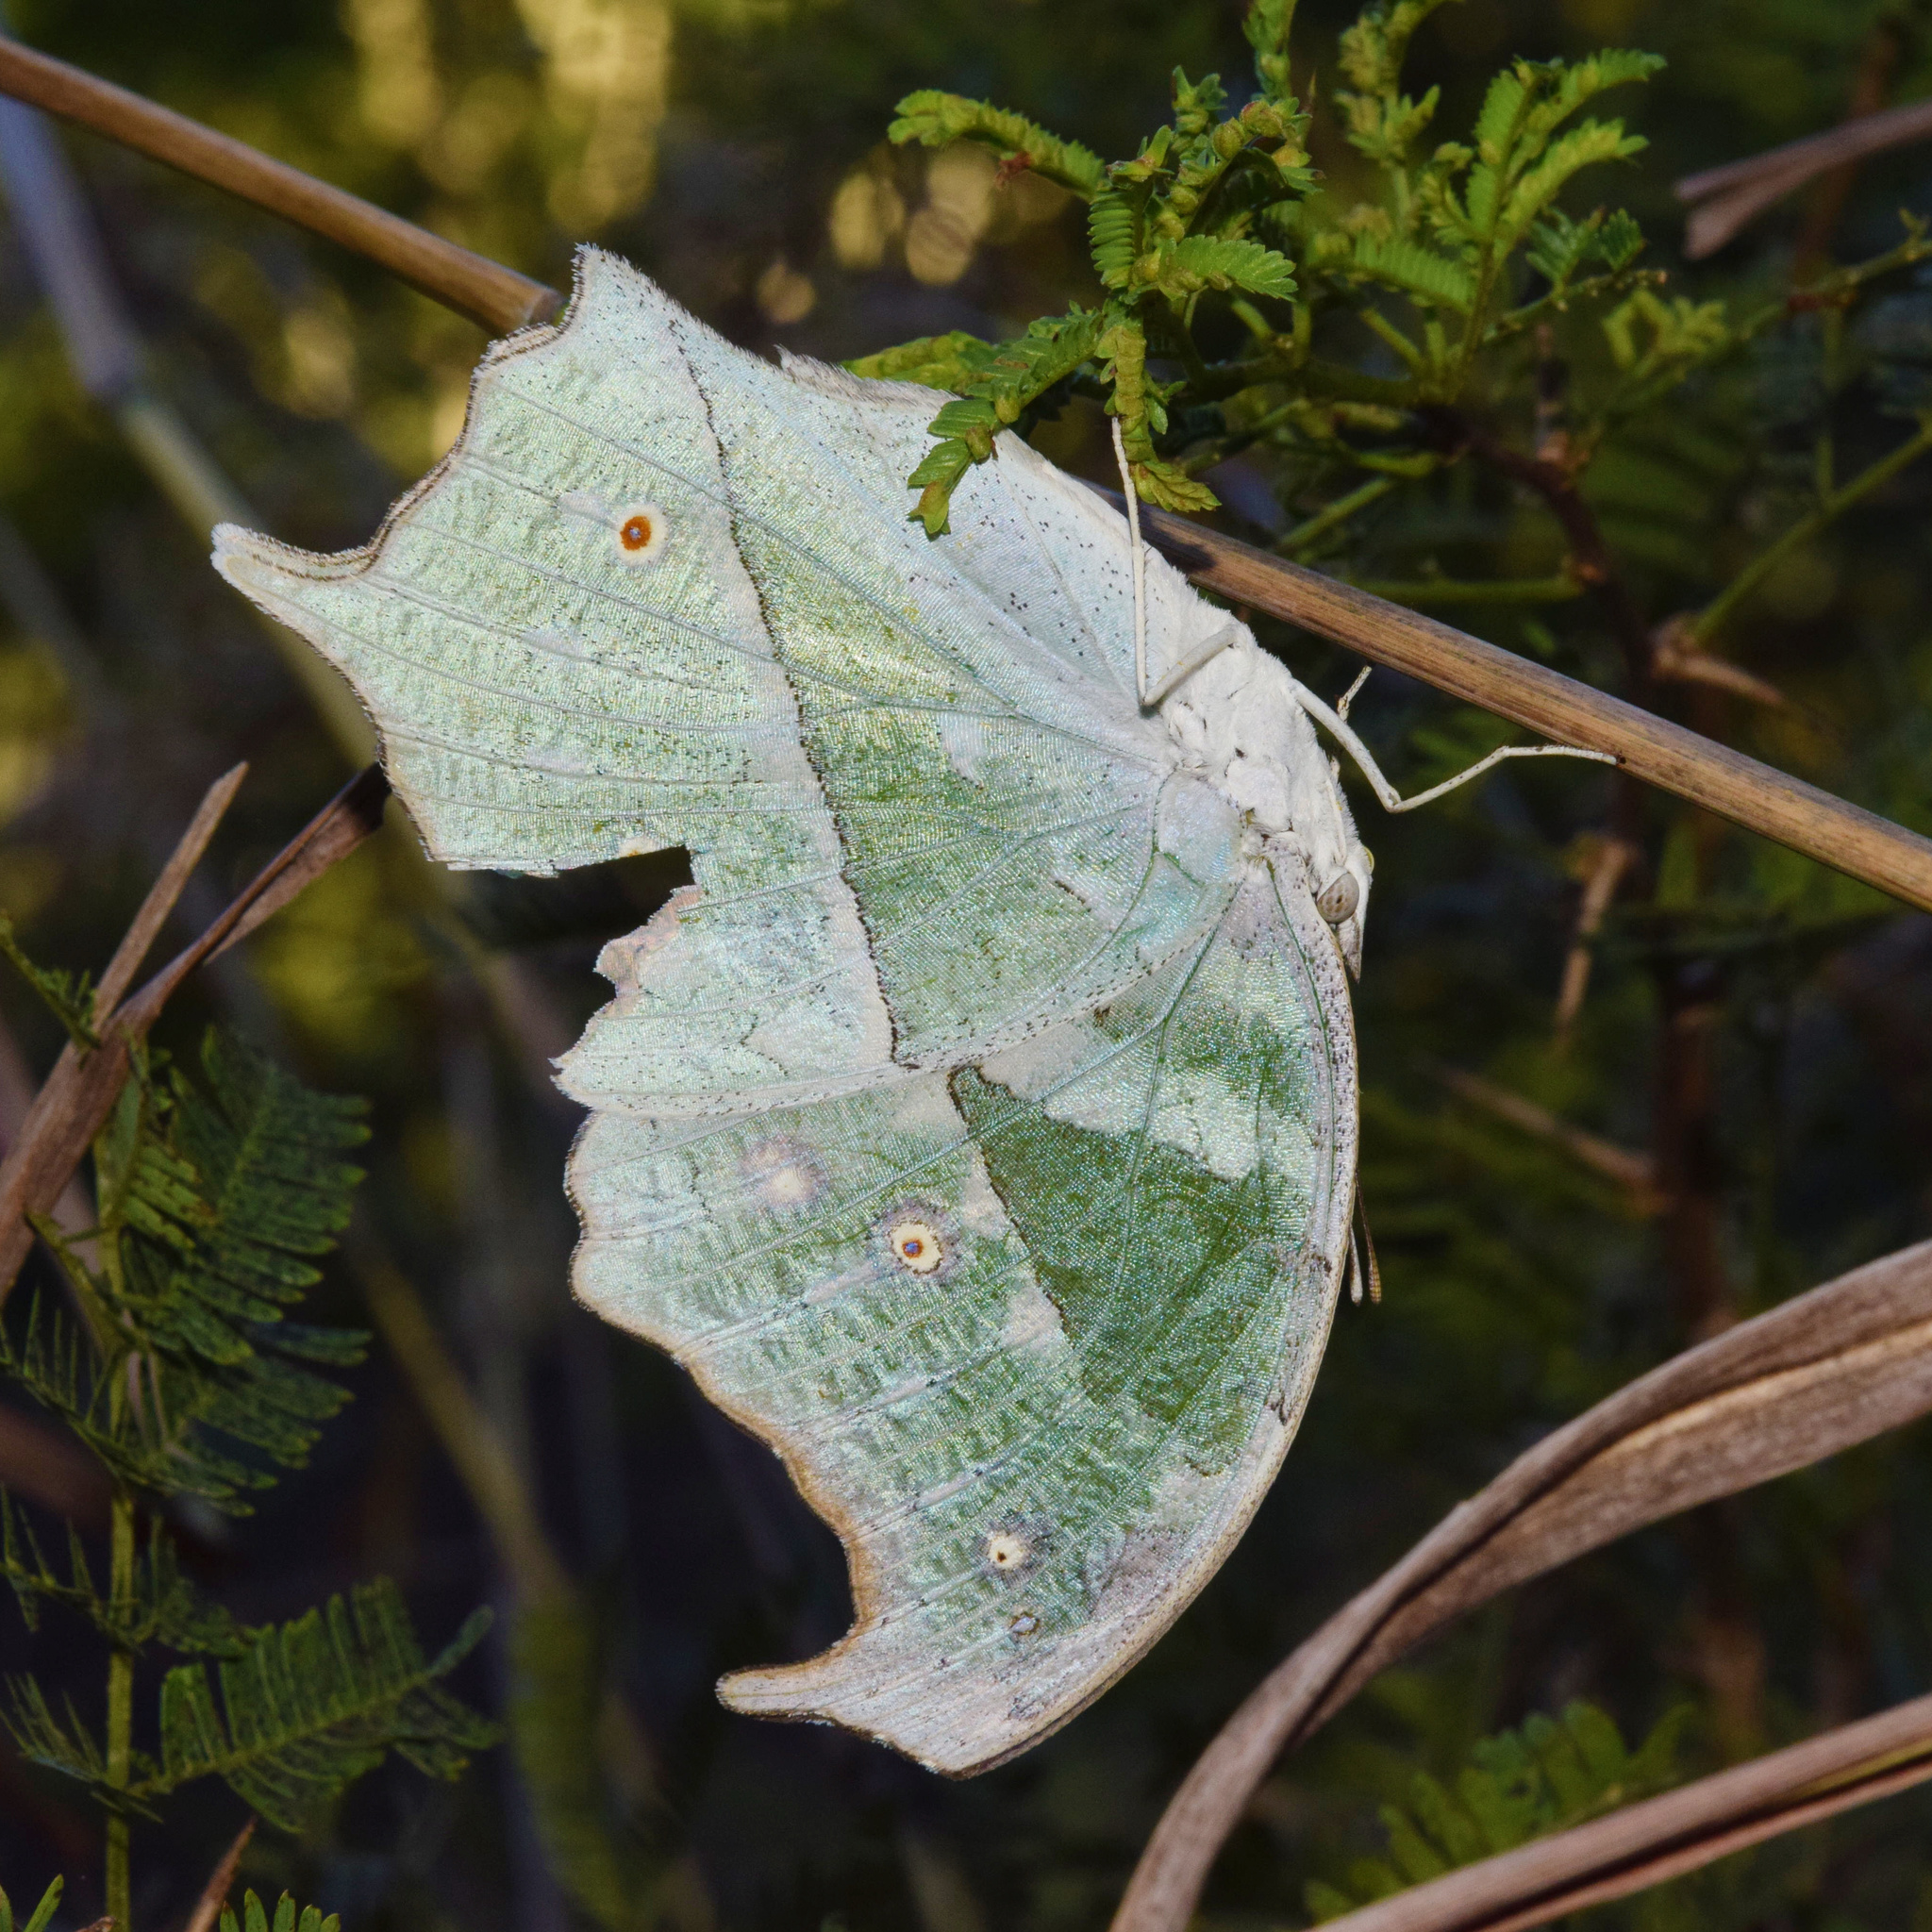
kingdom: Animalia
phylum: Arthropoda
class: Insecta
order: Lepidoptera
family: Nymphalidae
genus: Salamis
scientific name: Salamis Protogoniomorpha parhassus
